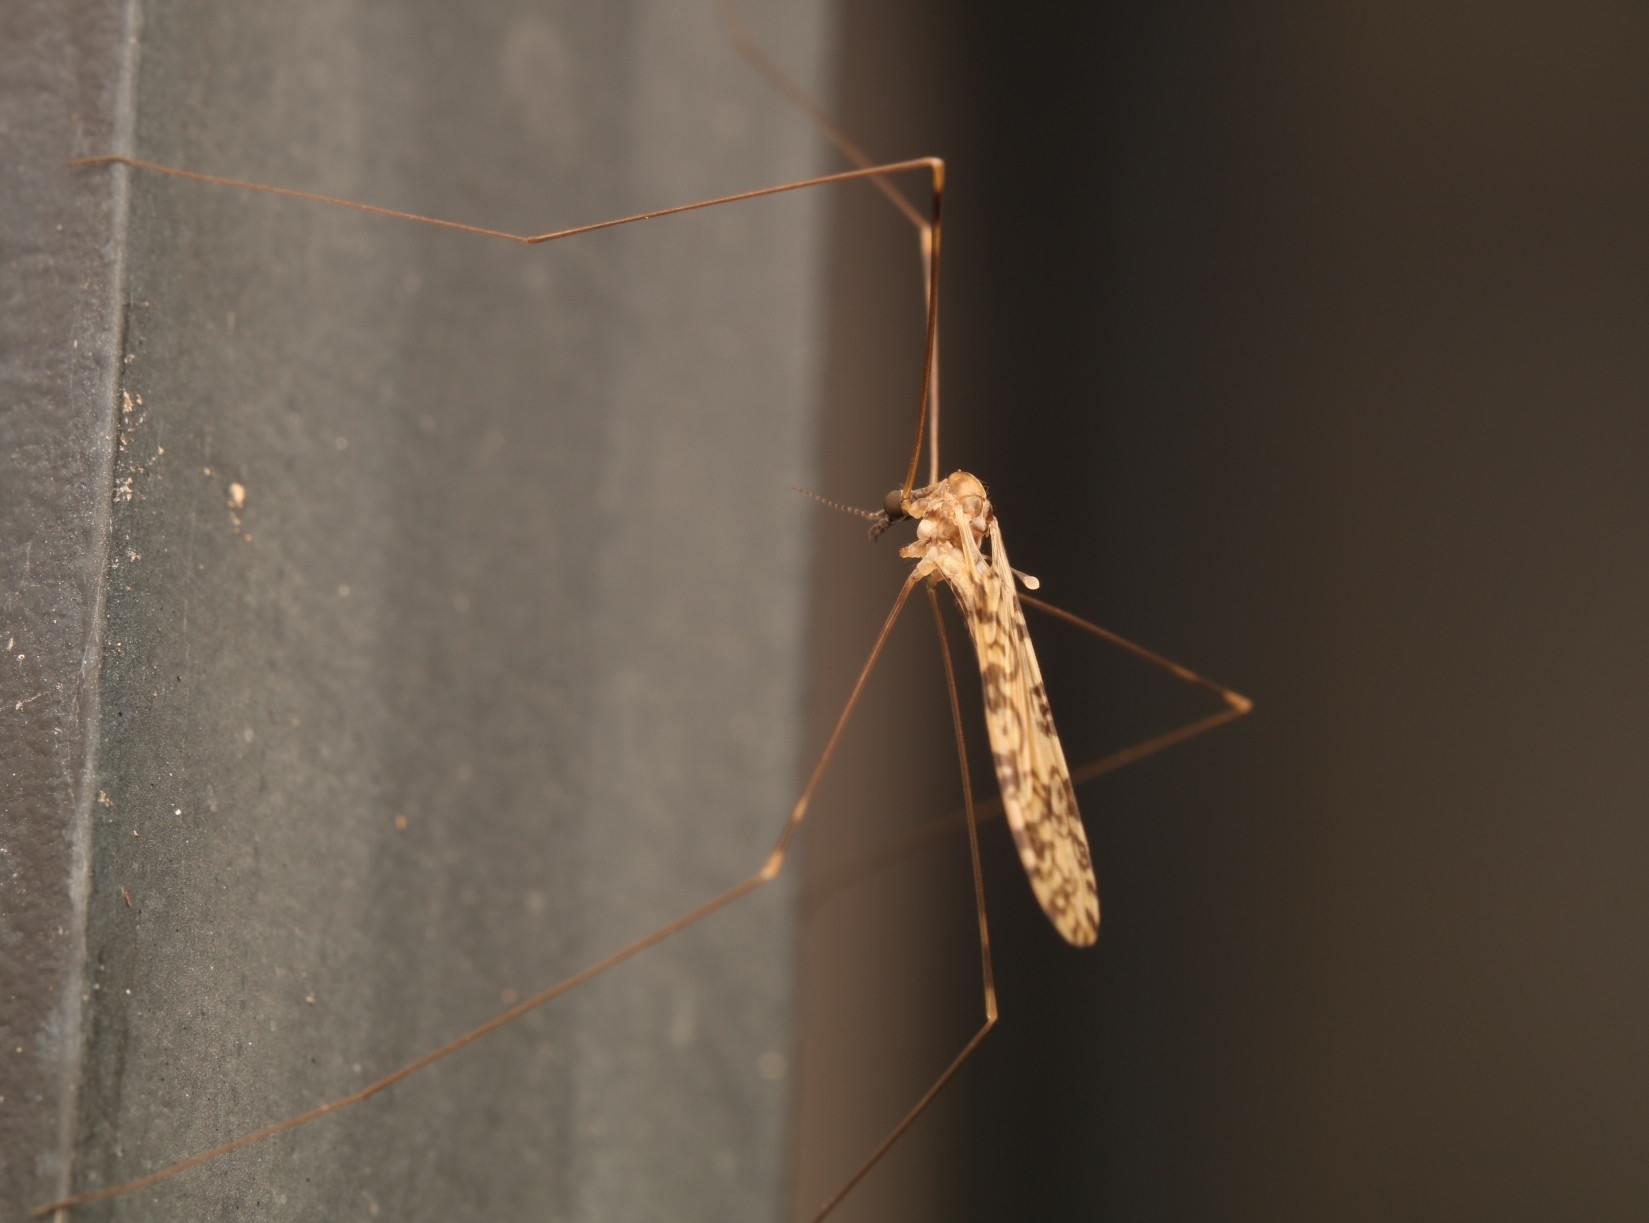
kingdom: Animalia
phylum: Arthropoda
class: Insecta
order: Diptera
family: Limoniidae
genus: Limonia
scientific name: Limonia annulata
